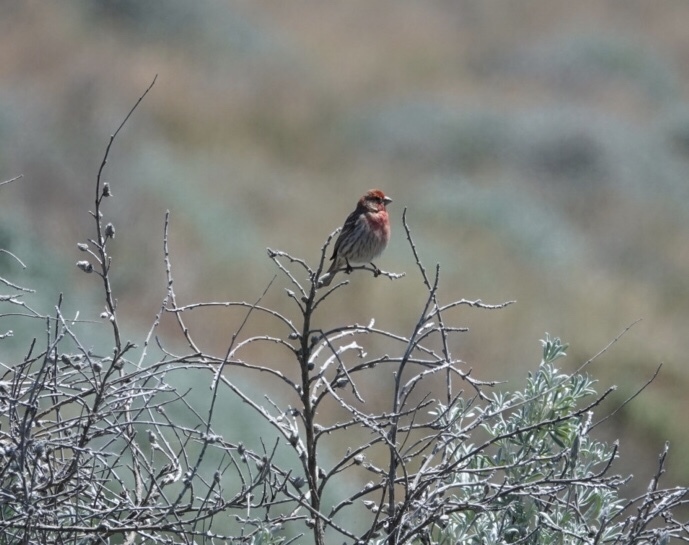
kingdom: Animalia
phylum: Chordata
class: Aves
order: Passeriformes
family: Fringillidae
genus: Haemorhous
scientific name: Haemorhous mexicanus
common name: House finch
